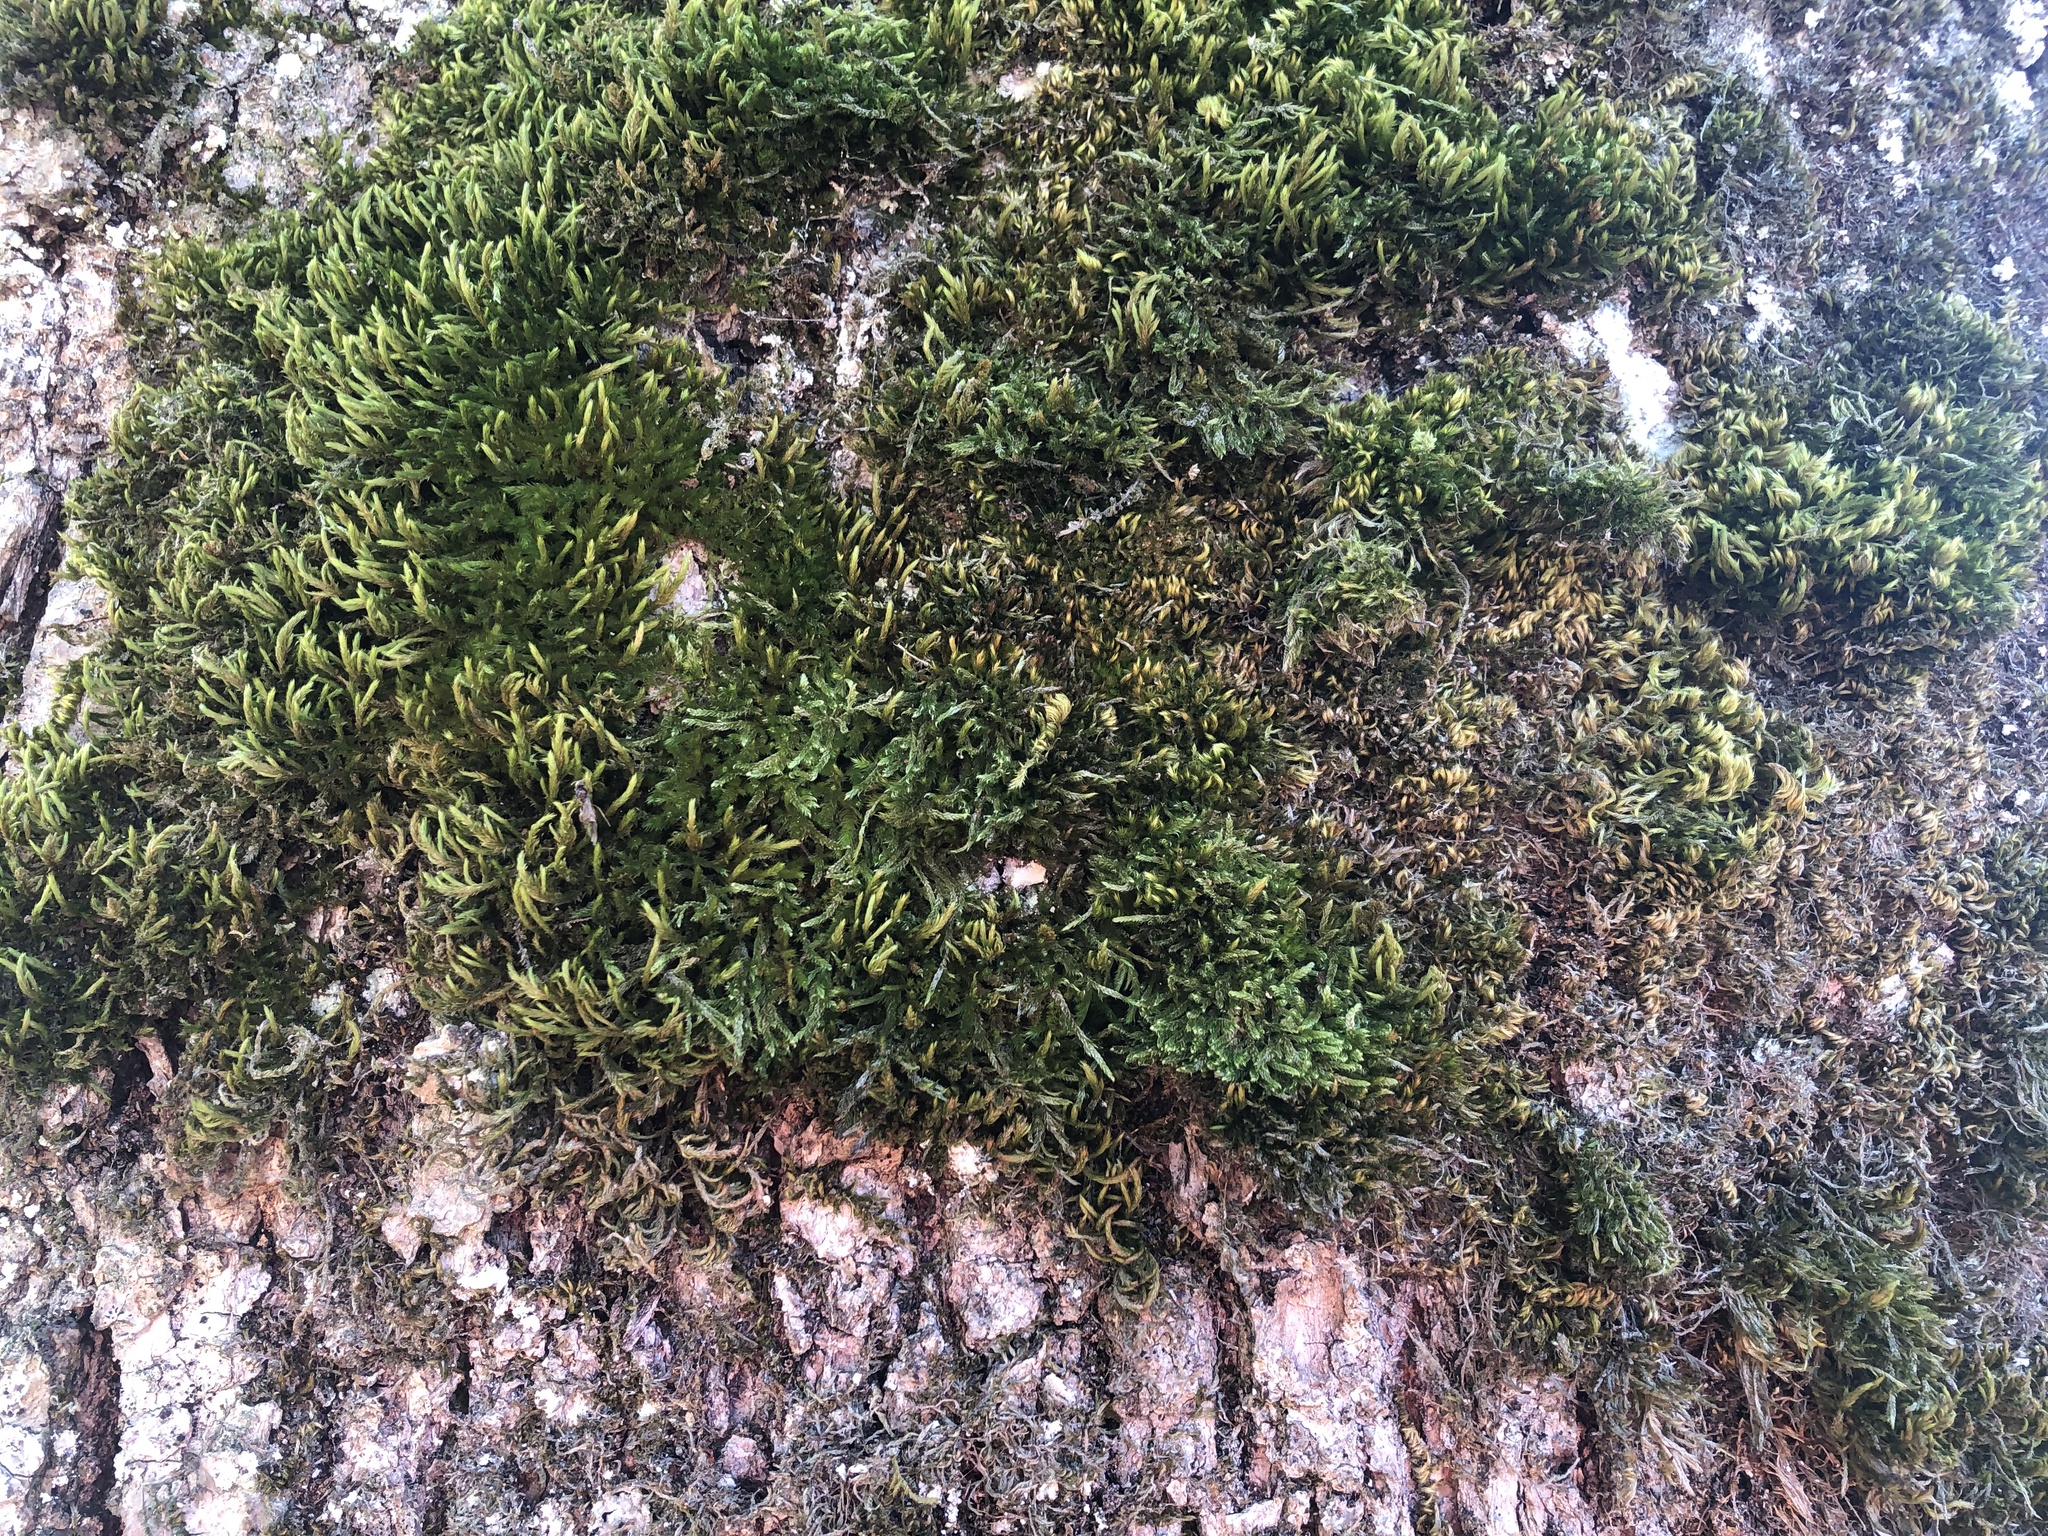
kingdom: Plantae
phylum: Bryophyta
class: Bryopsida
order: Hypnales
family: Leucodontaceae
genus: Leucodon
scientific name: Leucodon sciuroides
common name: Squirrel-tail moss
